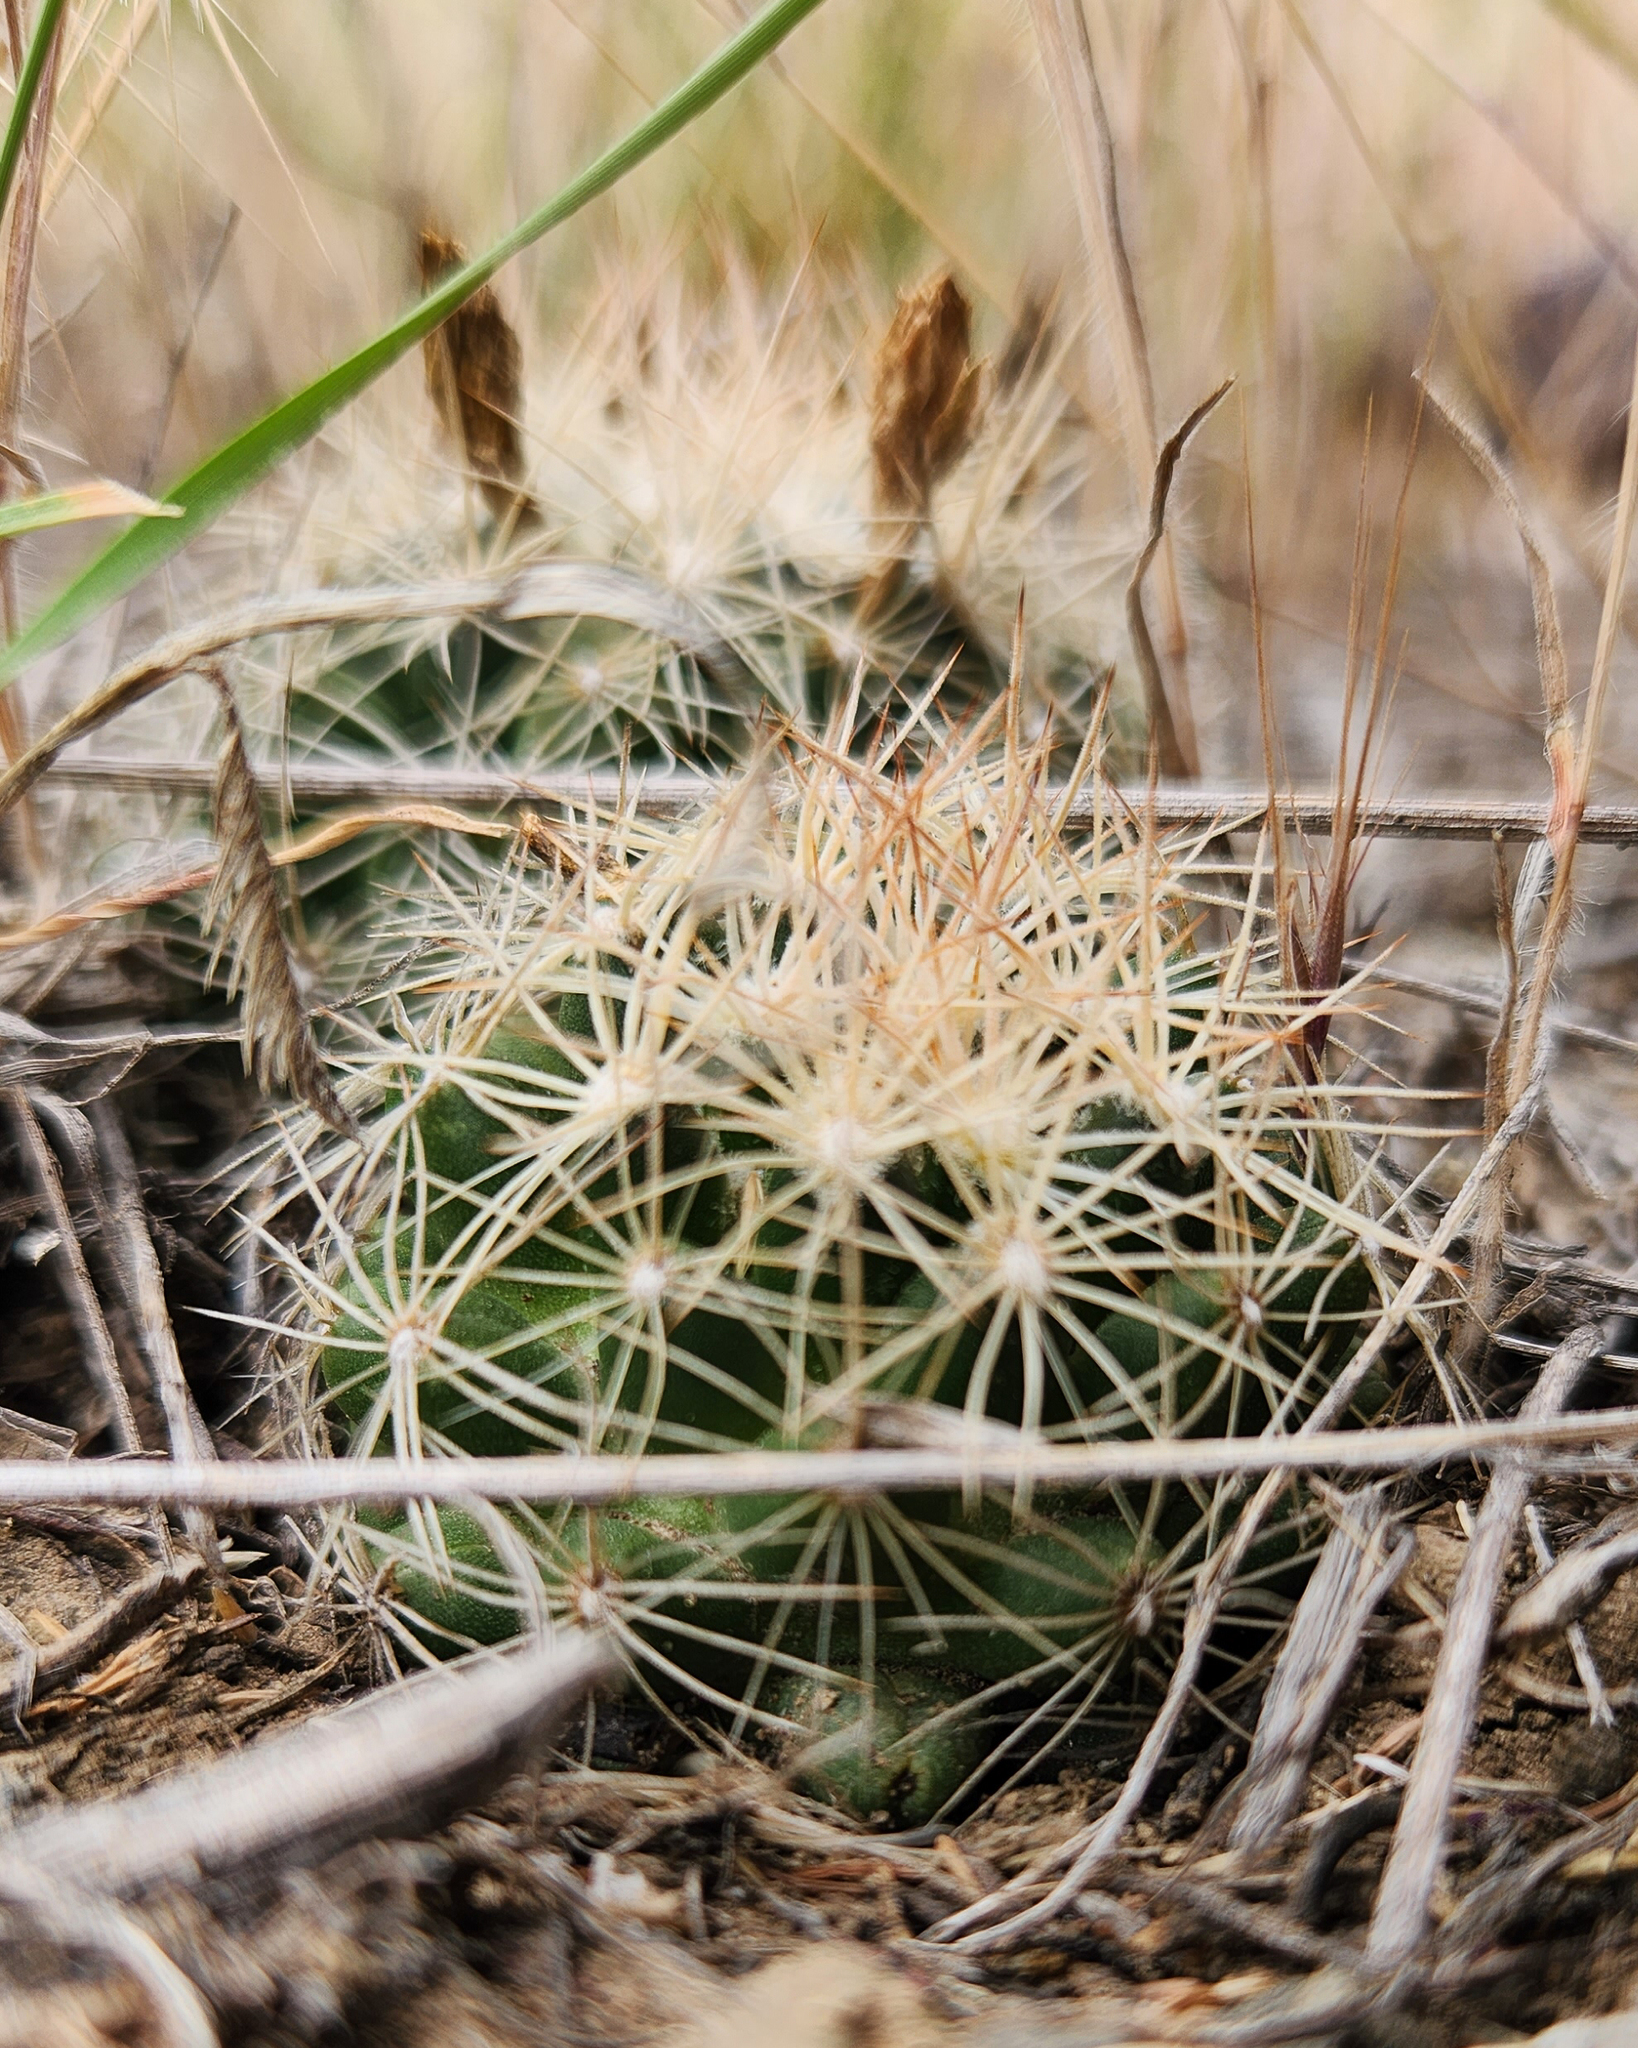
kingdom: Plantae
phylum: Tracheophyta
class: Magnoliopsida
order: Caryophyllales
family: Cactaceae
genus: Pelecyphora
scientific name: Pelecyphora missouriensis
